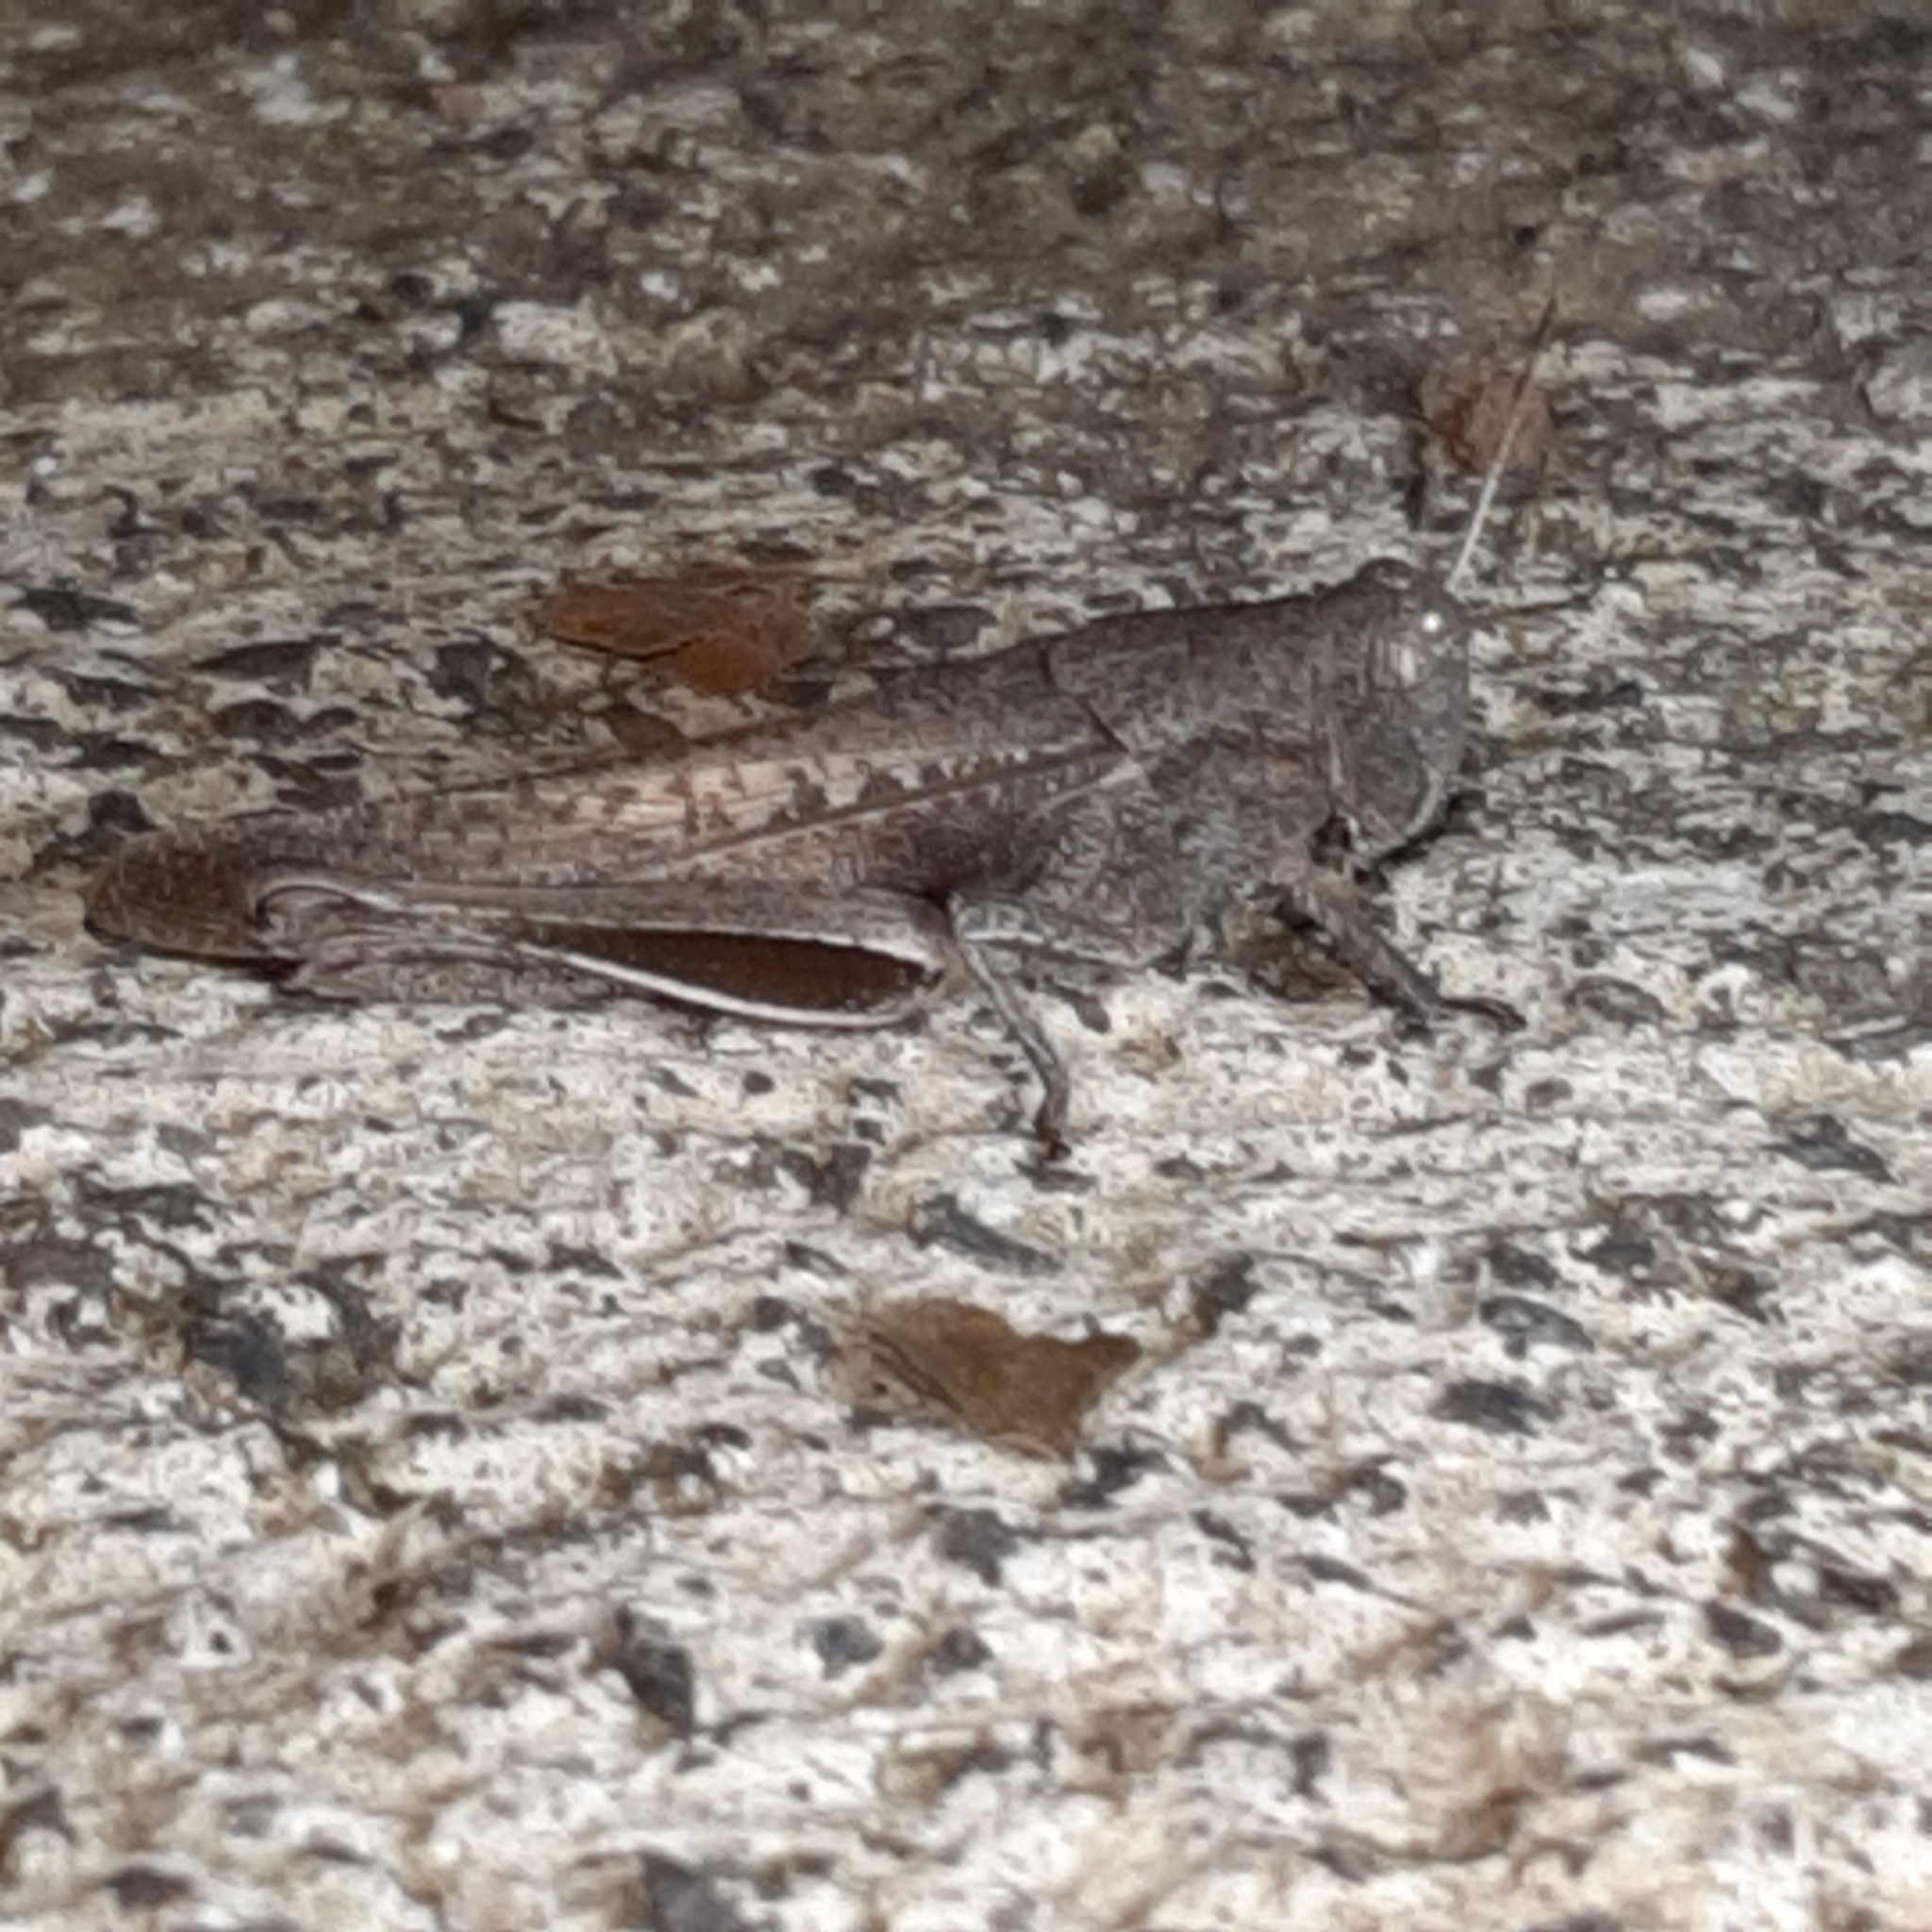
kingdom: Animalia
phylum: Arthropoda
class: Insecta
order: Orthoptera
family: Acrididae
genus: Abracris
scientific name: Abracris flavolineata
